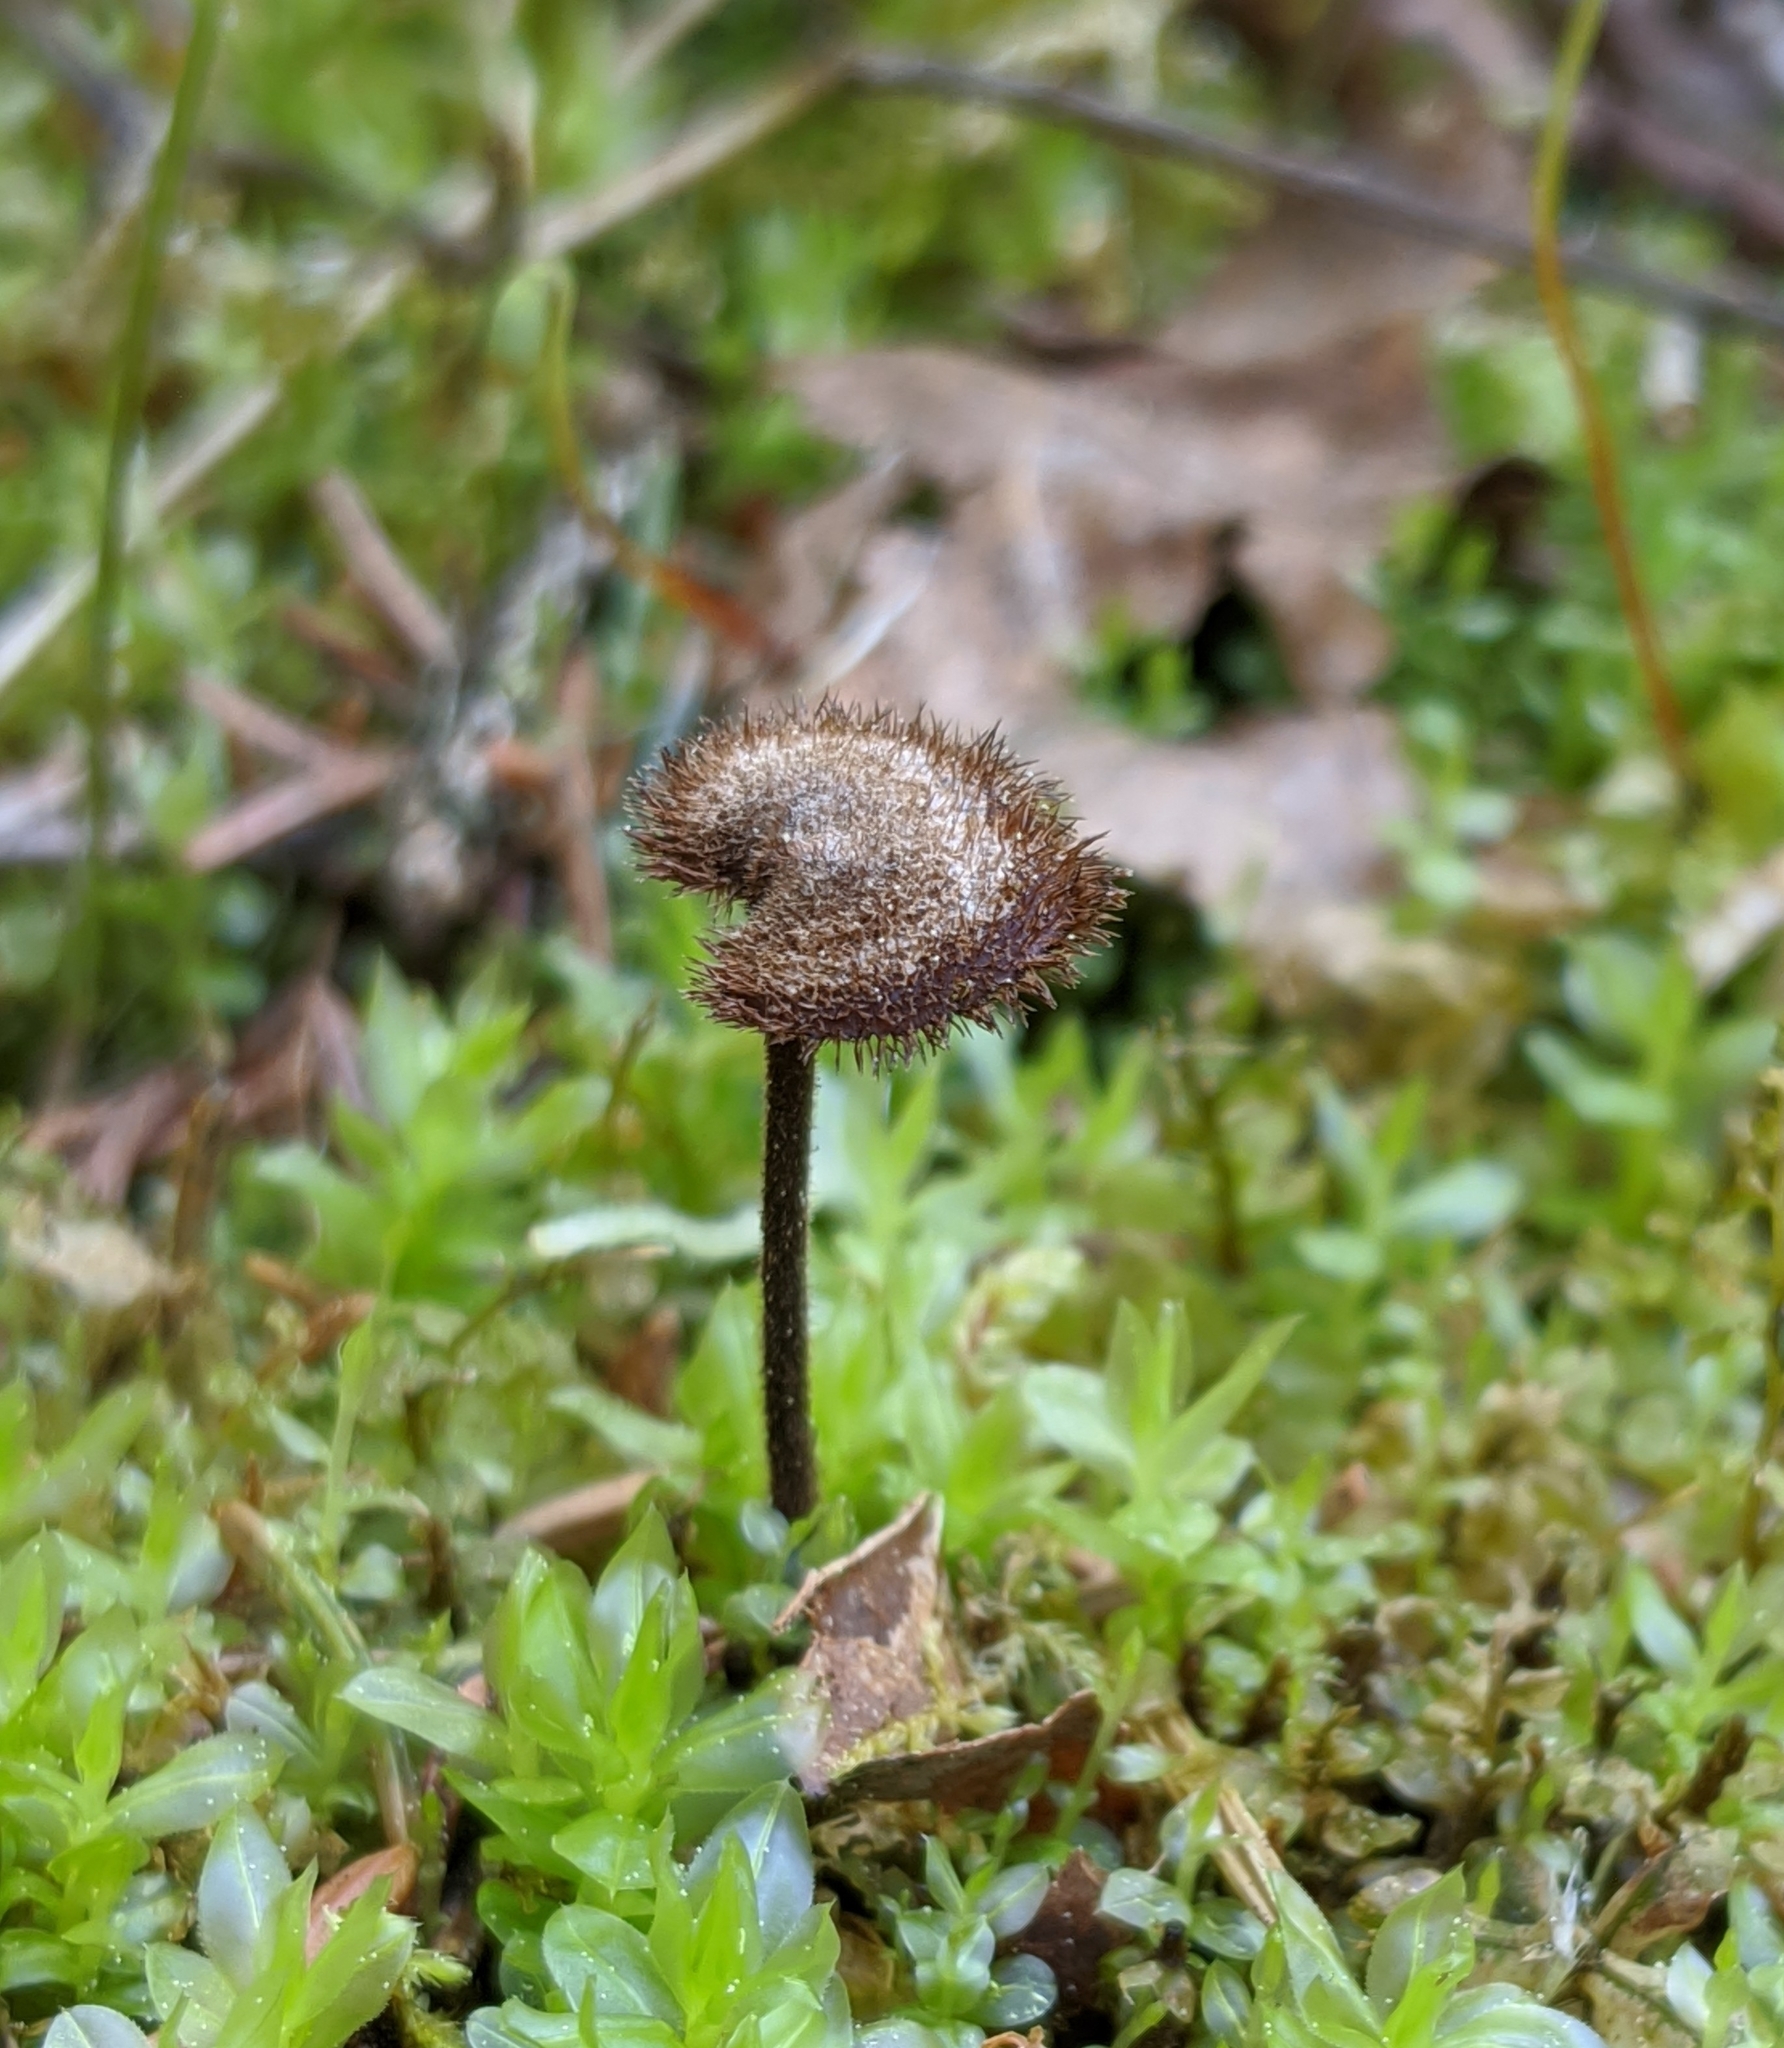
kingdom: Fungi
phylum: Basidiomycota
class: Agaricomycetes
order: Russulales
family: Auriscalpiaceae
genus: Auriscalpium
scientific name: Auriscalpium vulgare
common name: Earpick fungus
